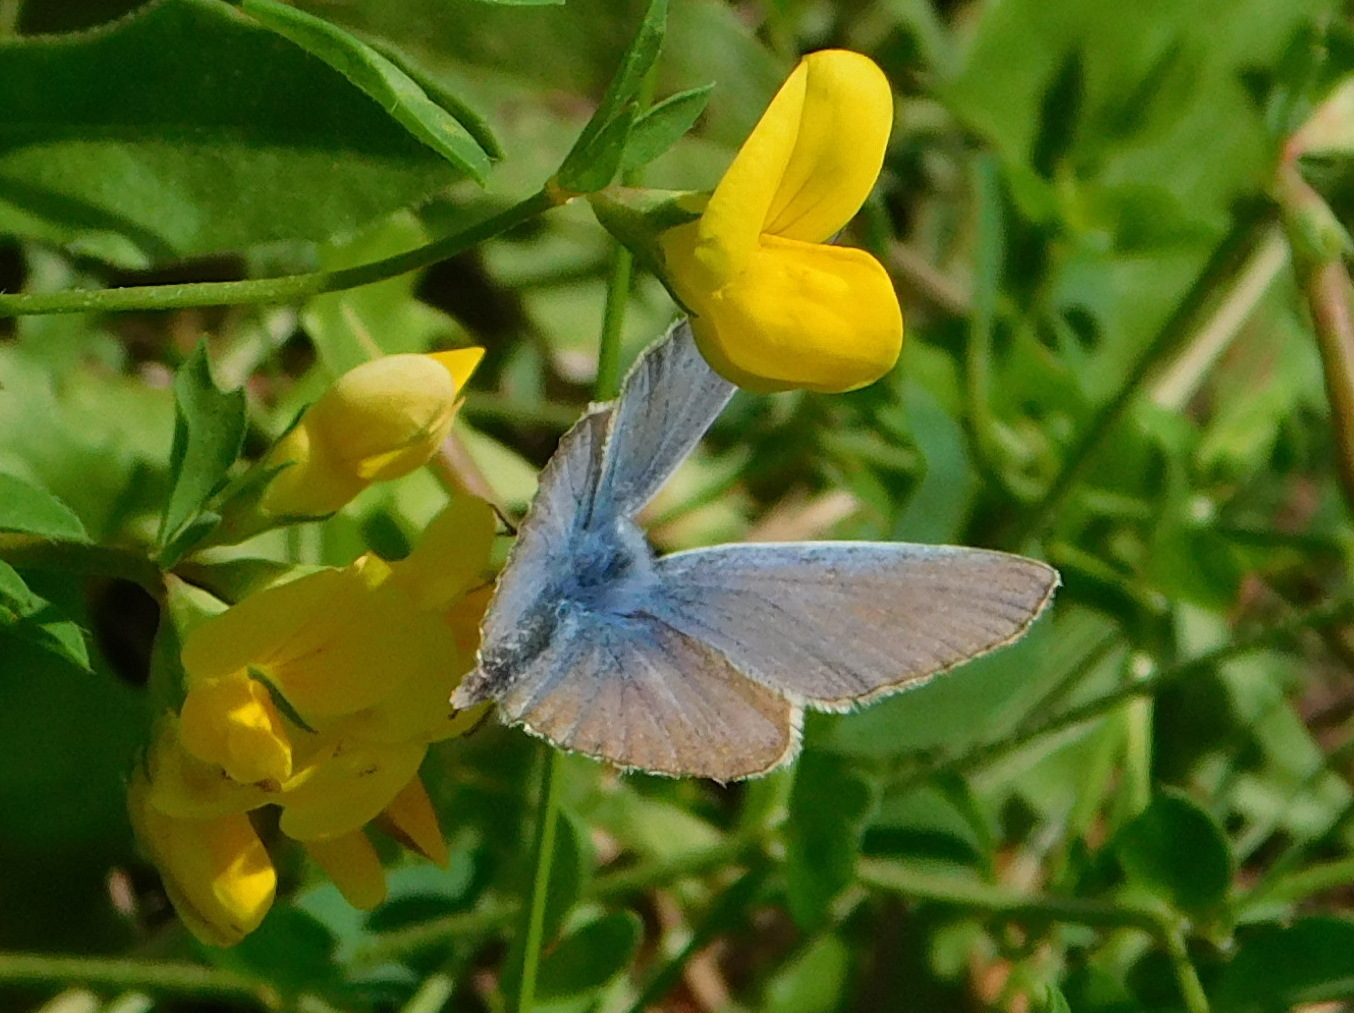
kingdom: Animalia
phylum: Arthropoda
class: Insecta
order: Lepidoptera
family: Lycaenidae
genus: Polyommatus
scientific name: Polyommatus icarus
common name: Common blue
